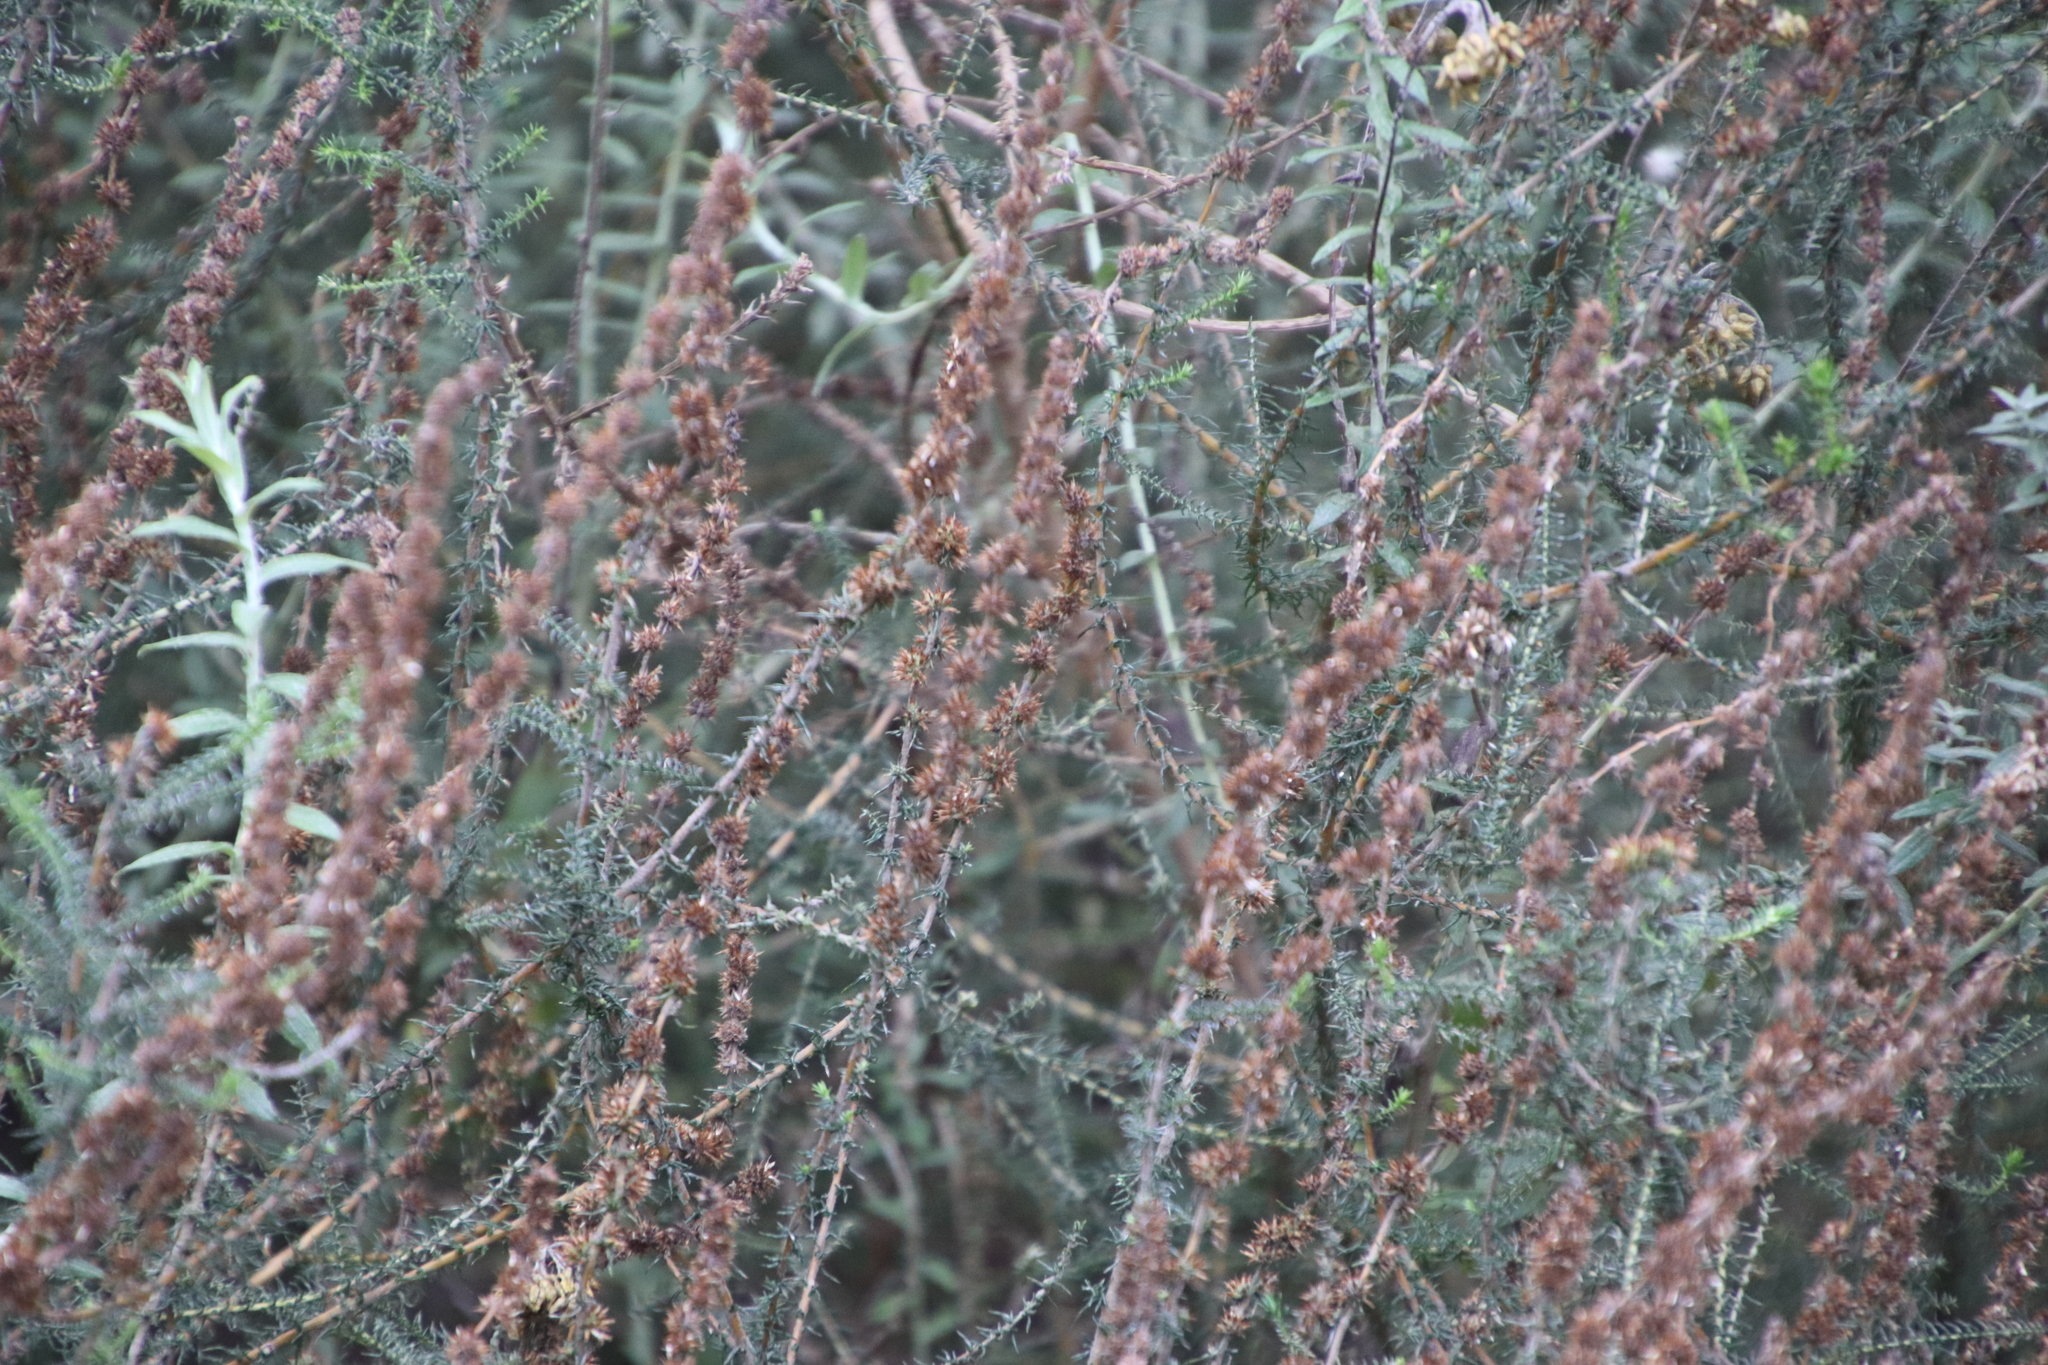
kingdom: Plantae
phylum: Tracheophyta
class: Magnoliopsida
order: Asterales
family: Asteraceae
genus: Seriphium
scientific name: Seriphium cinereum
